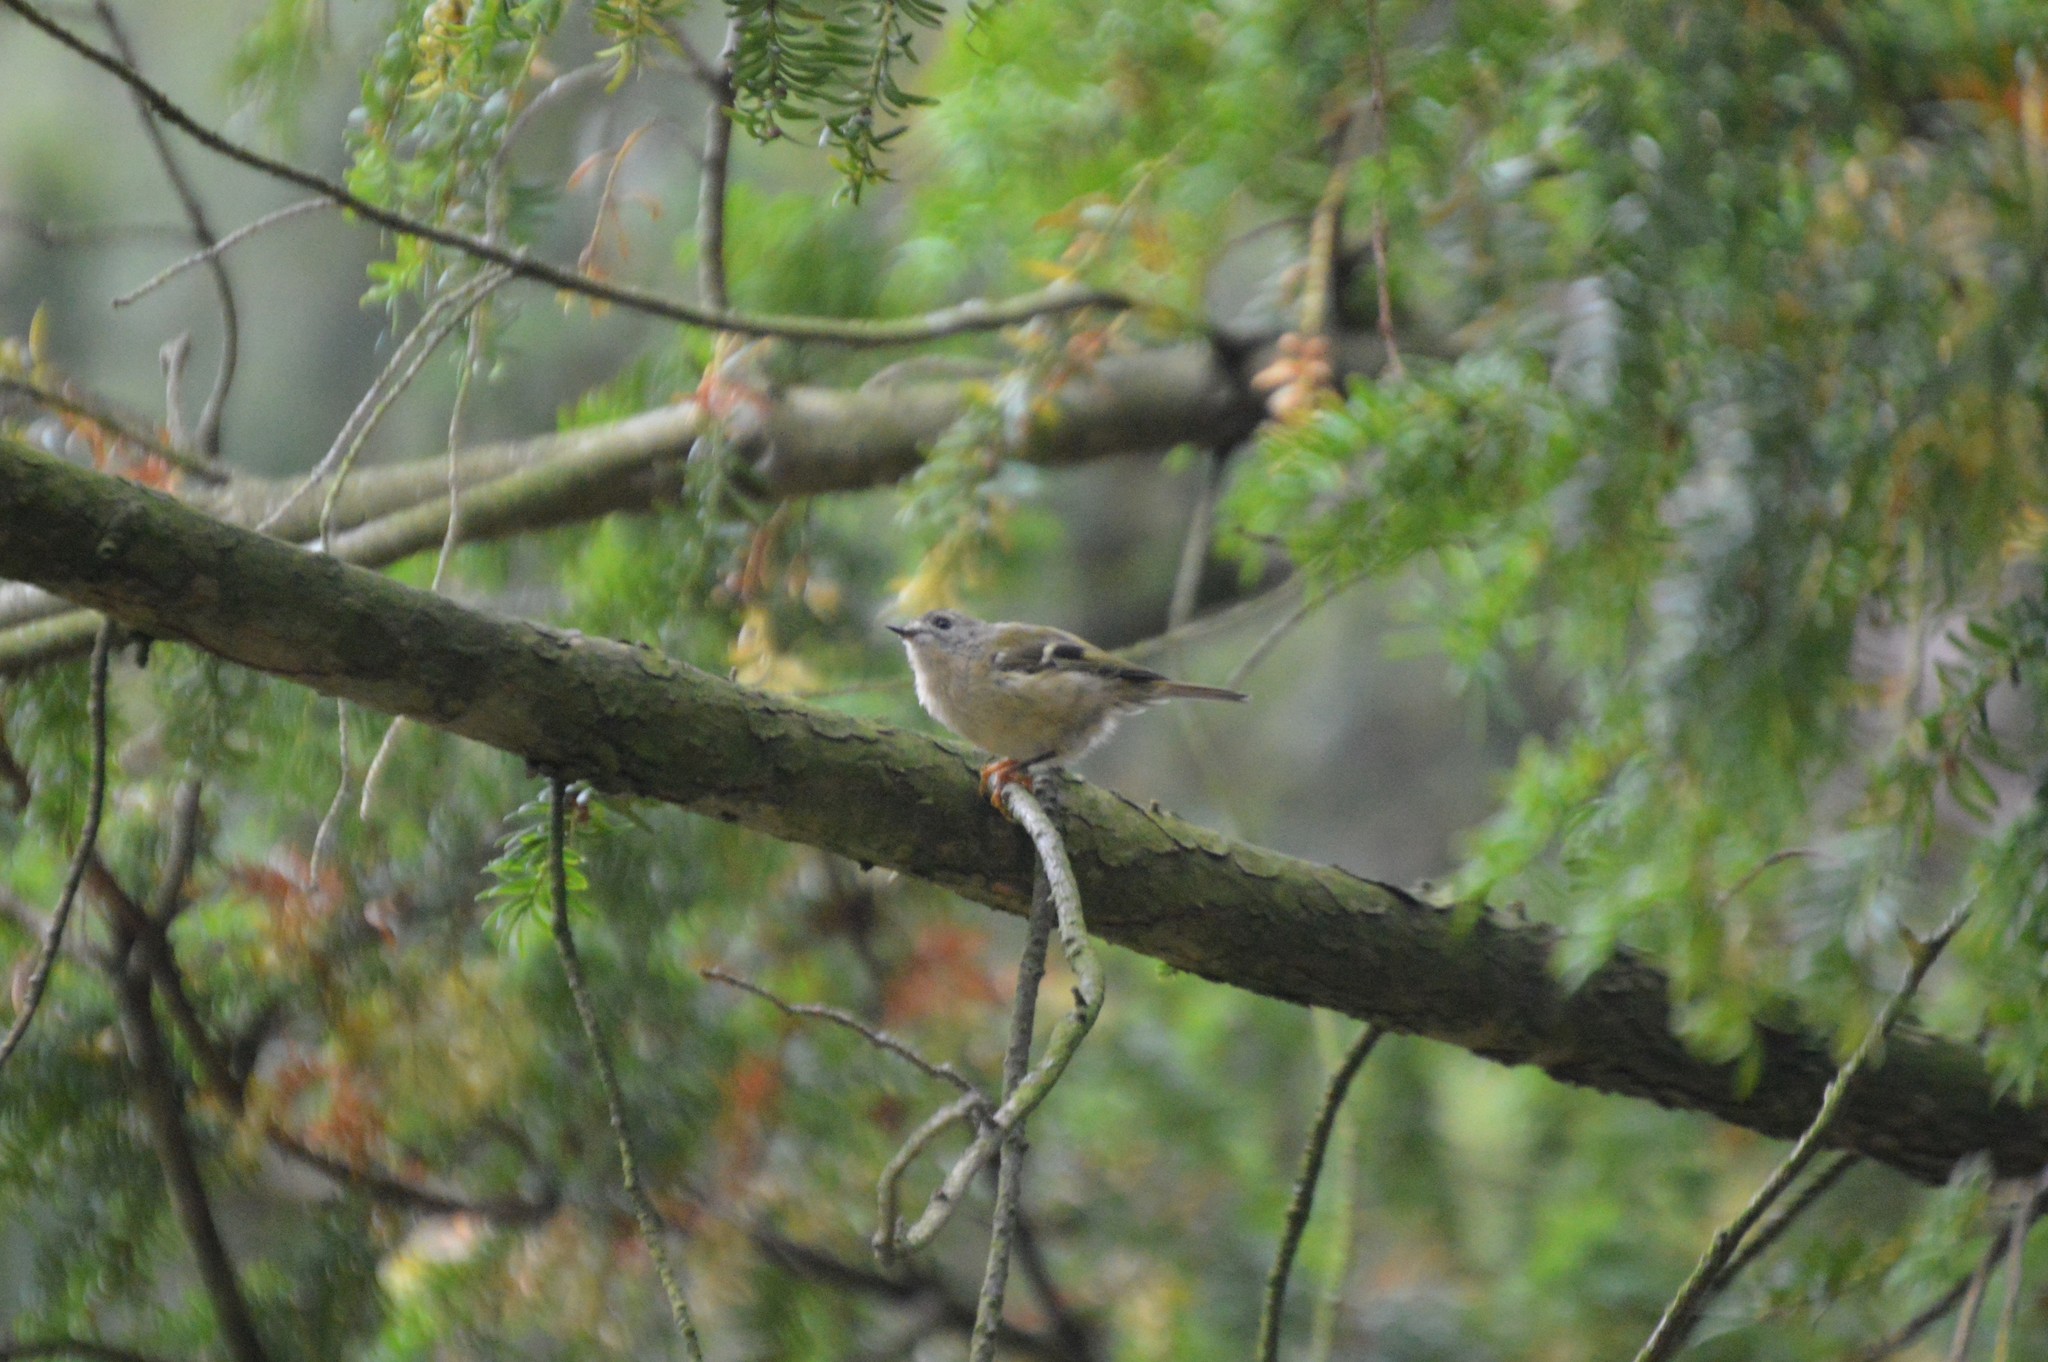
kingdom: Animalia
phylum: Chordata
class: Aves
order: Passeriformes
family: Regulidae
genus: Regulus
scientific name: Regulus regulus
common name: Goldcrest
